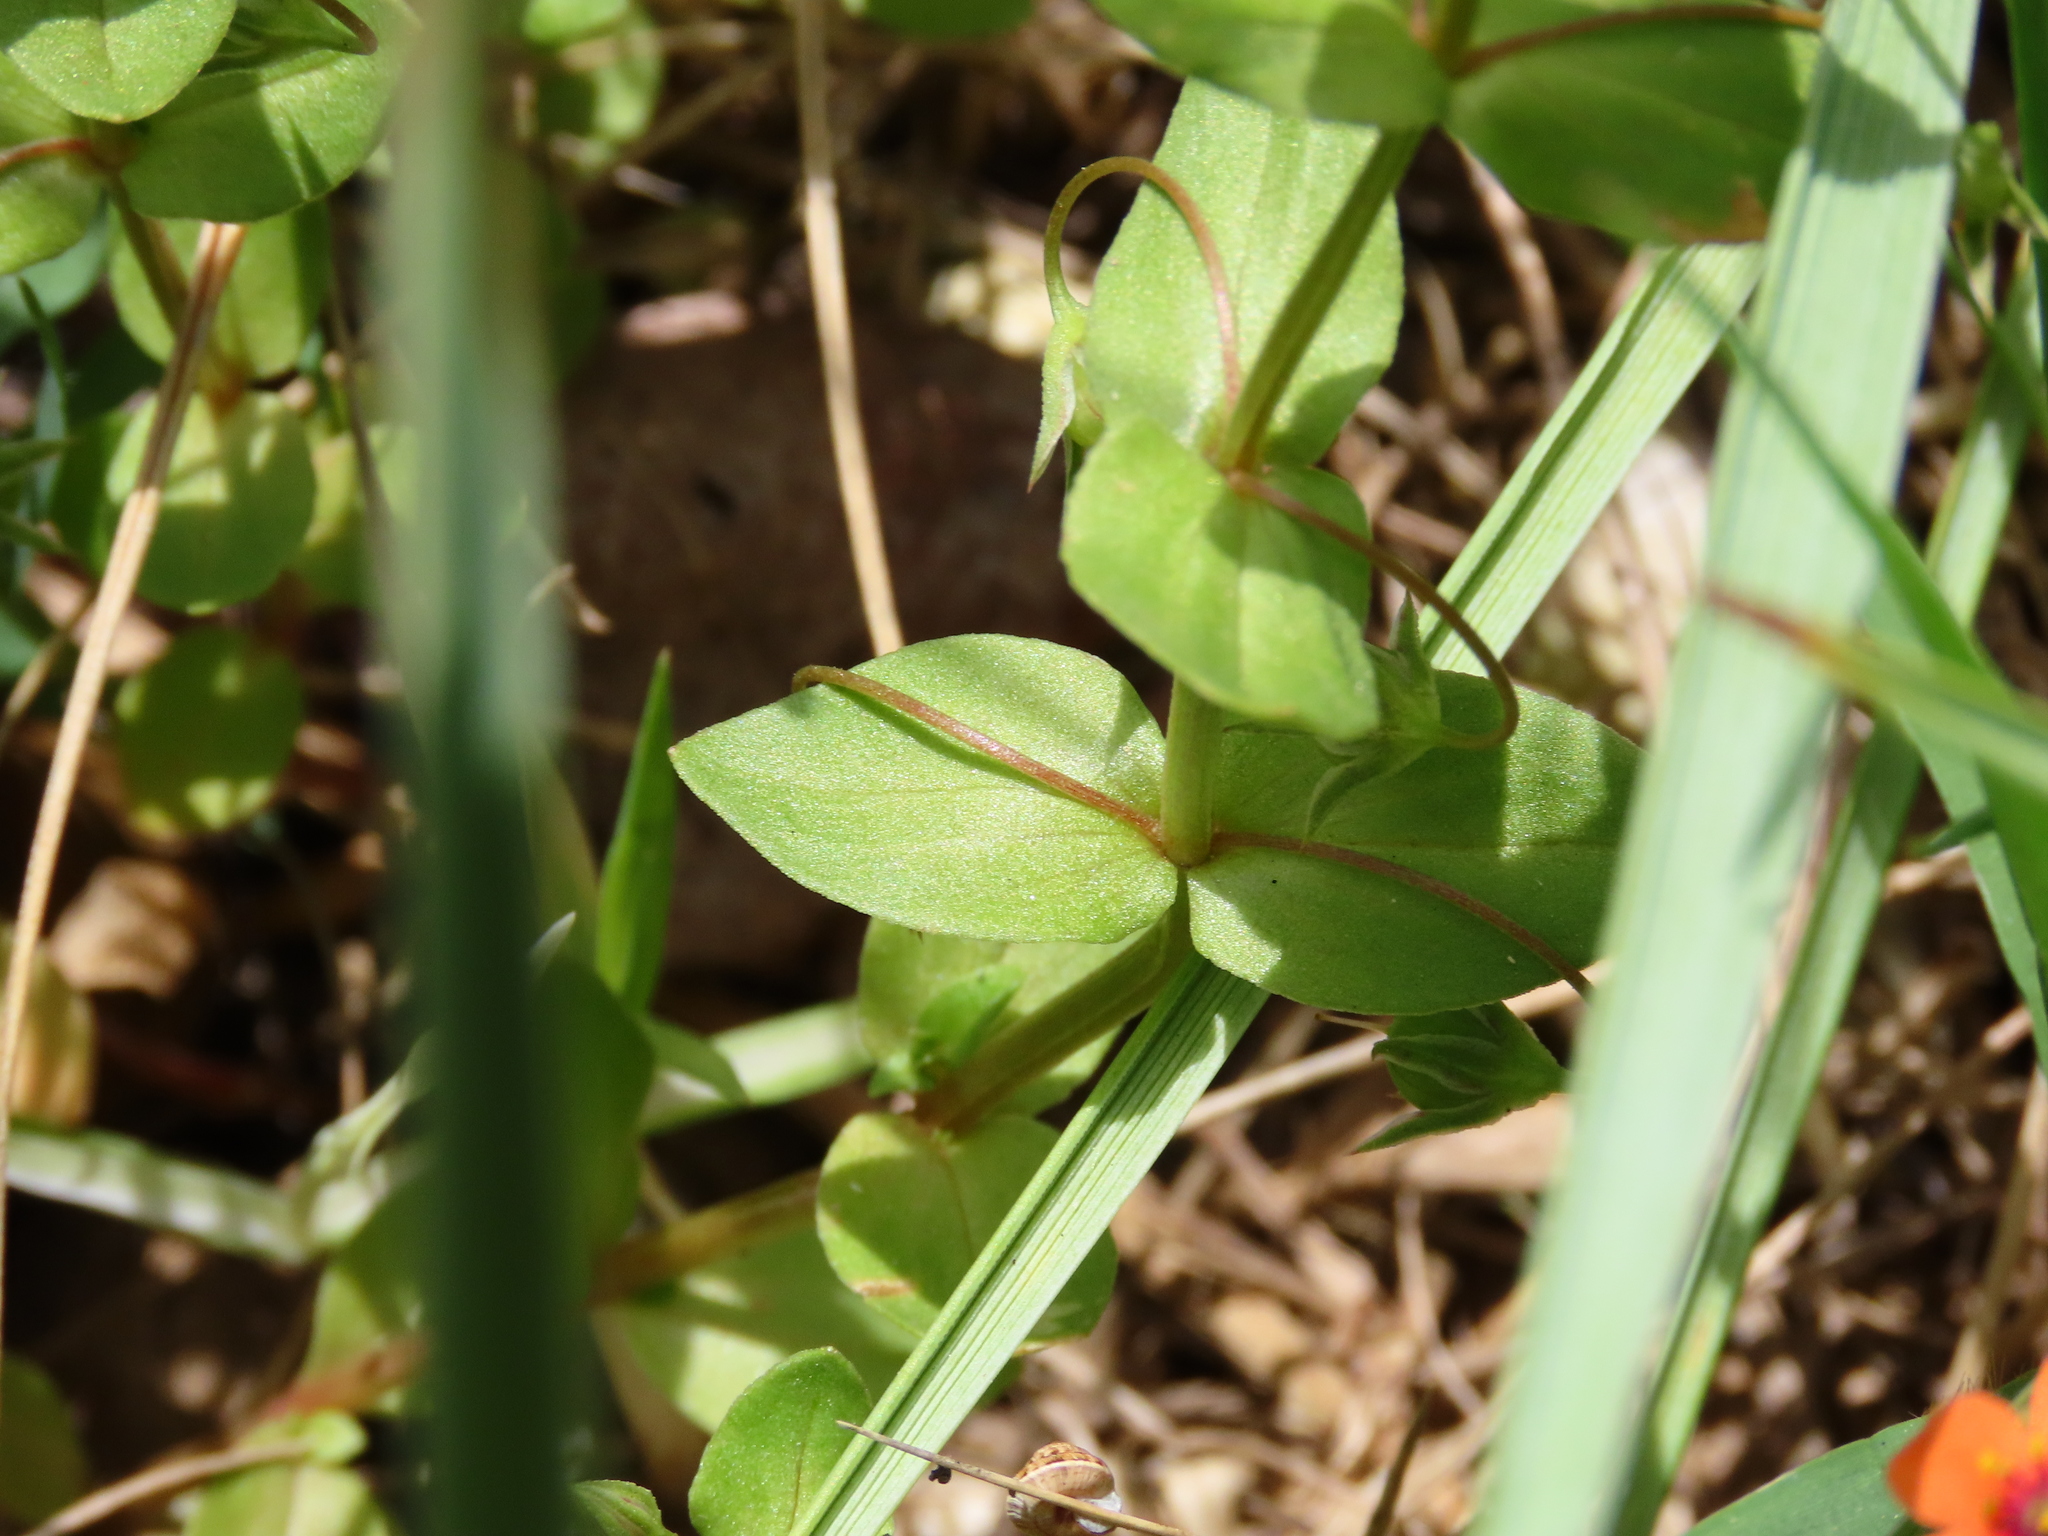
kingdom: Plantae
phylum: Tracheophyta
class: Magnoliopsida
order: Ericales
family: Primulaceae
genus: Lysimachia
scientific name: Lysimachia arvensis
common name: Scarlet pimpernel
